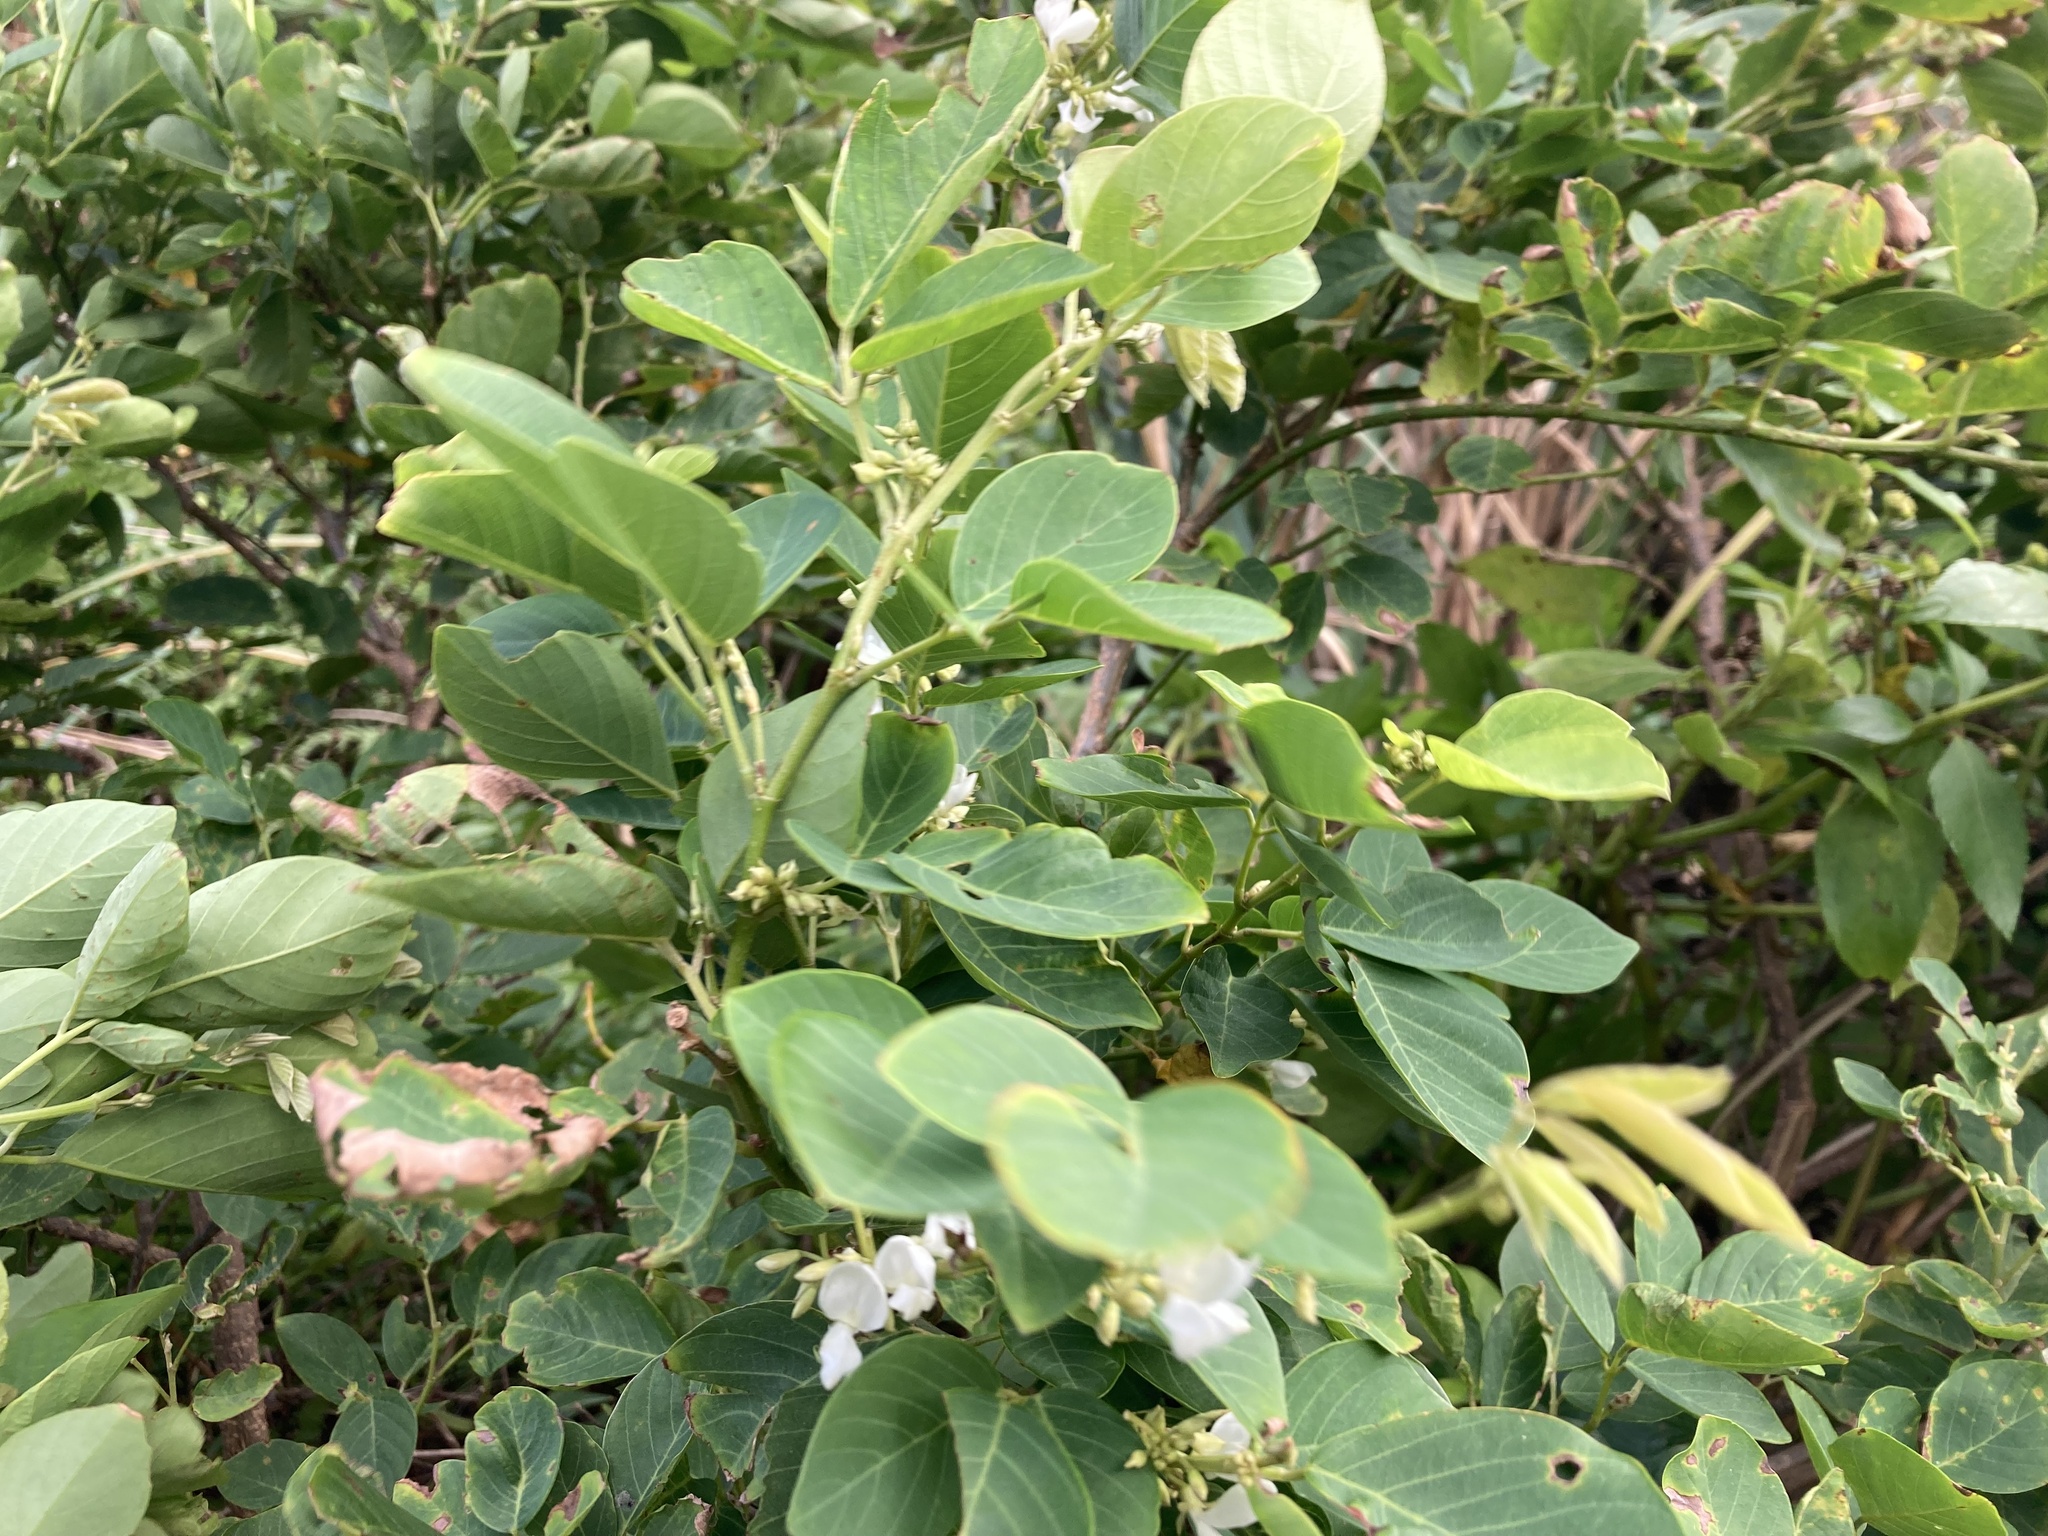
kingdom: Plantae
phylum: Tracheophyta
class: Magnoliopsida
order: Fabales
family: Fabaceae
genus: Dendrolobium
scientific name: Dendrolobium umbellatum
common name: Horsebush
